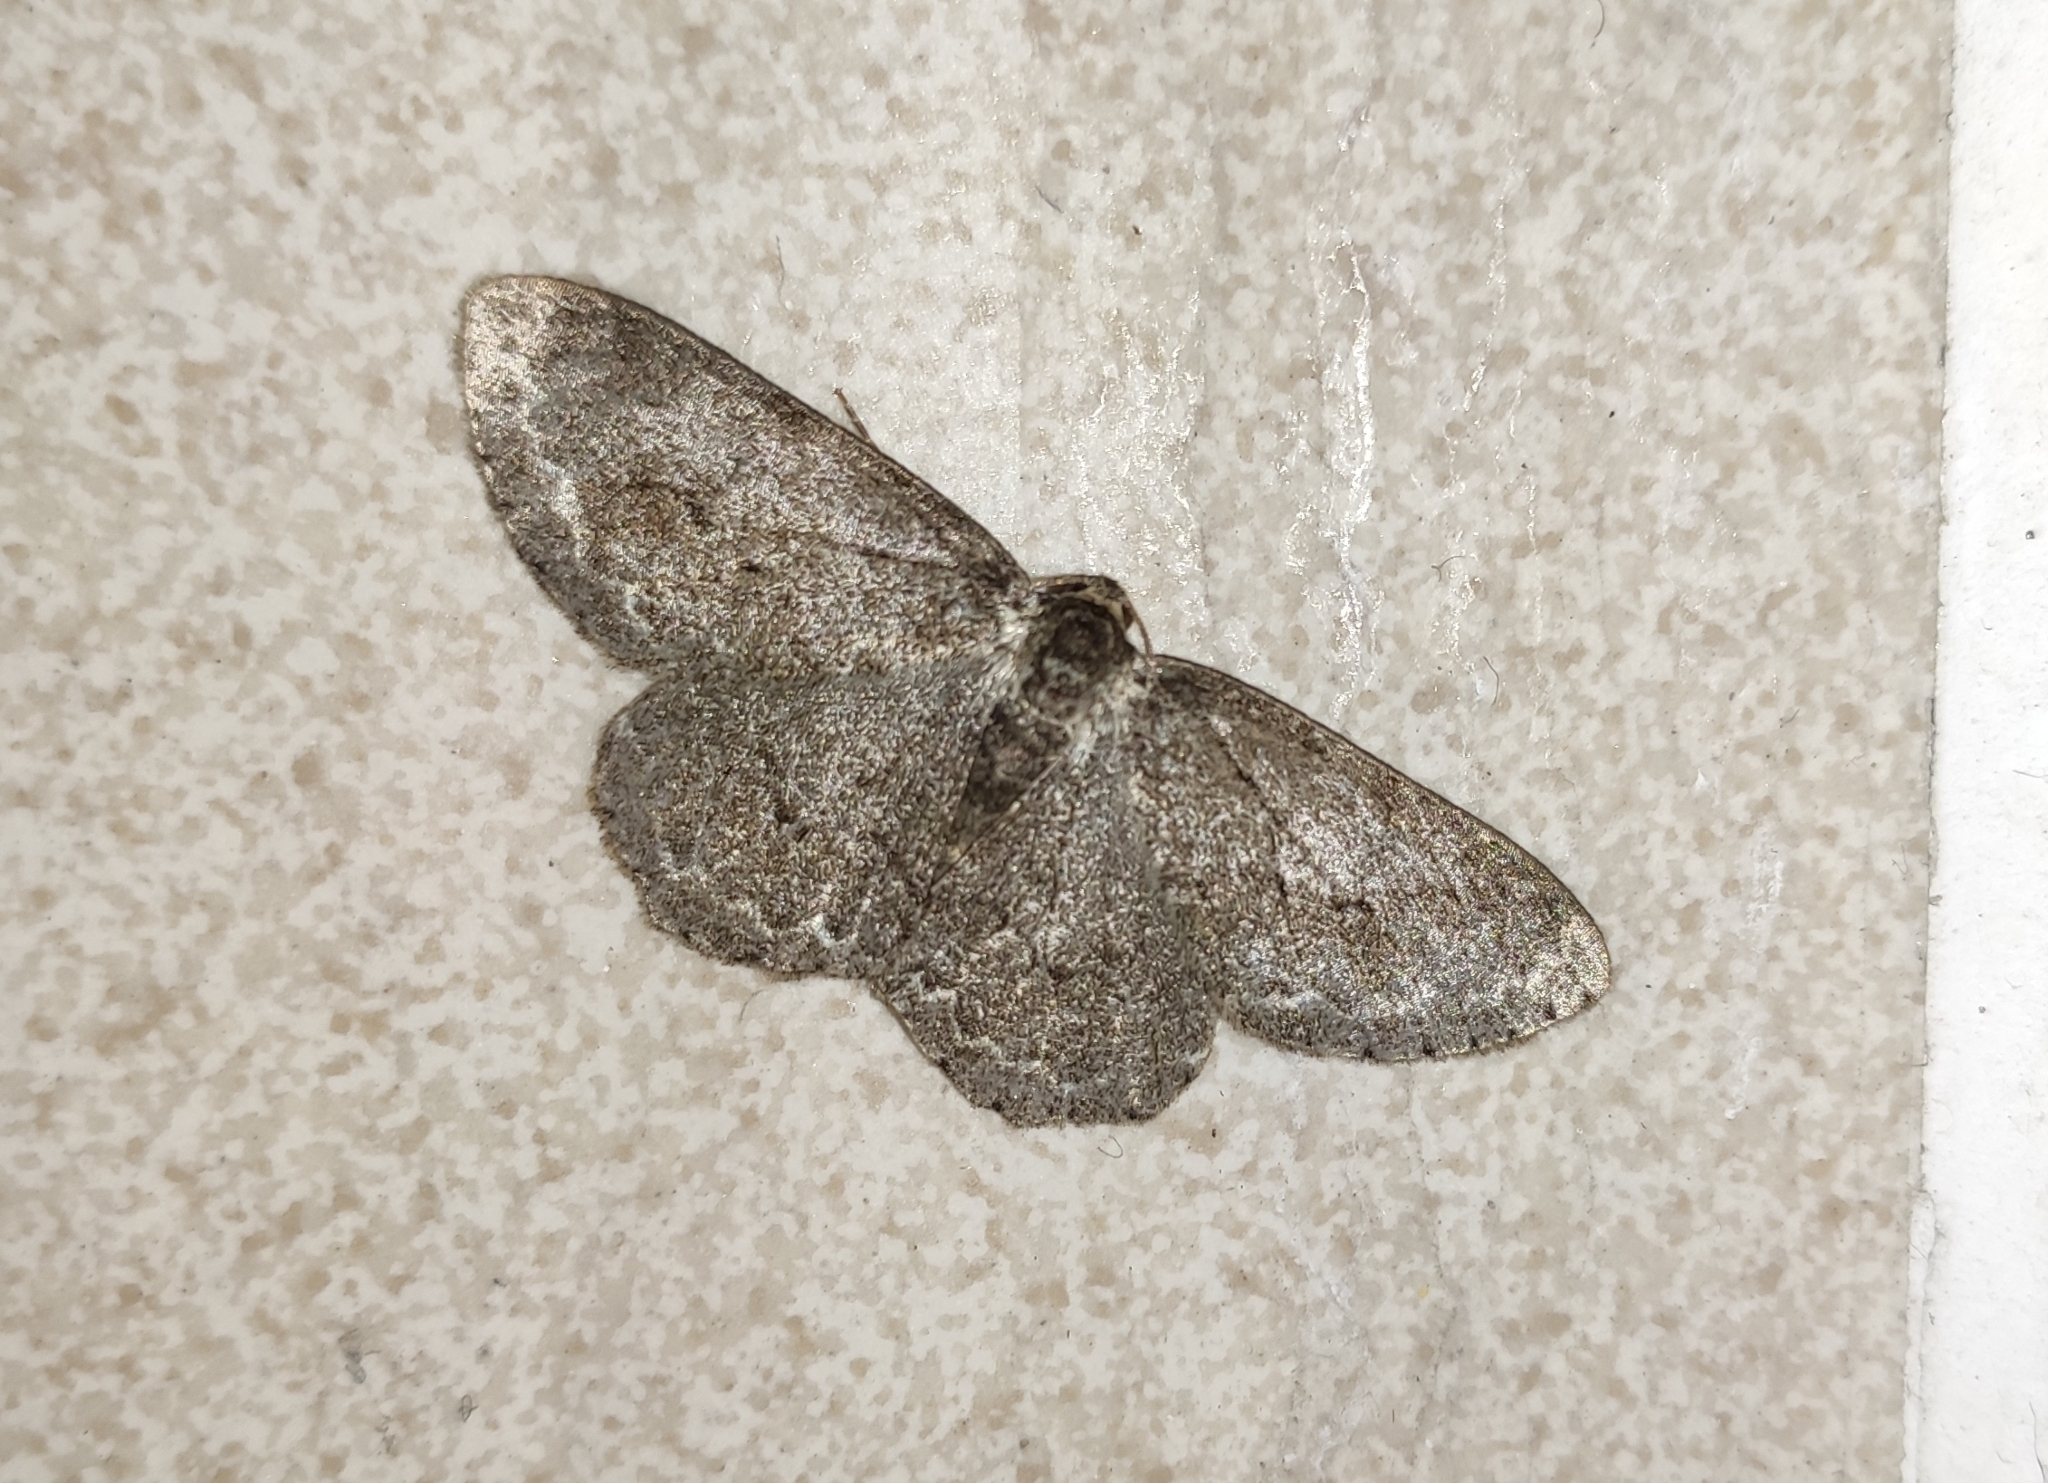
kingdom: Animalia
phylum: Arthropoda
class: Insecta
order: Lepidoptera
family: Geometridae
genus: Ectropis
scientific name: Ectropis crepuscularia
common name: Engrailed
